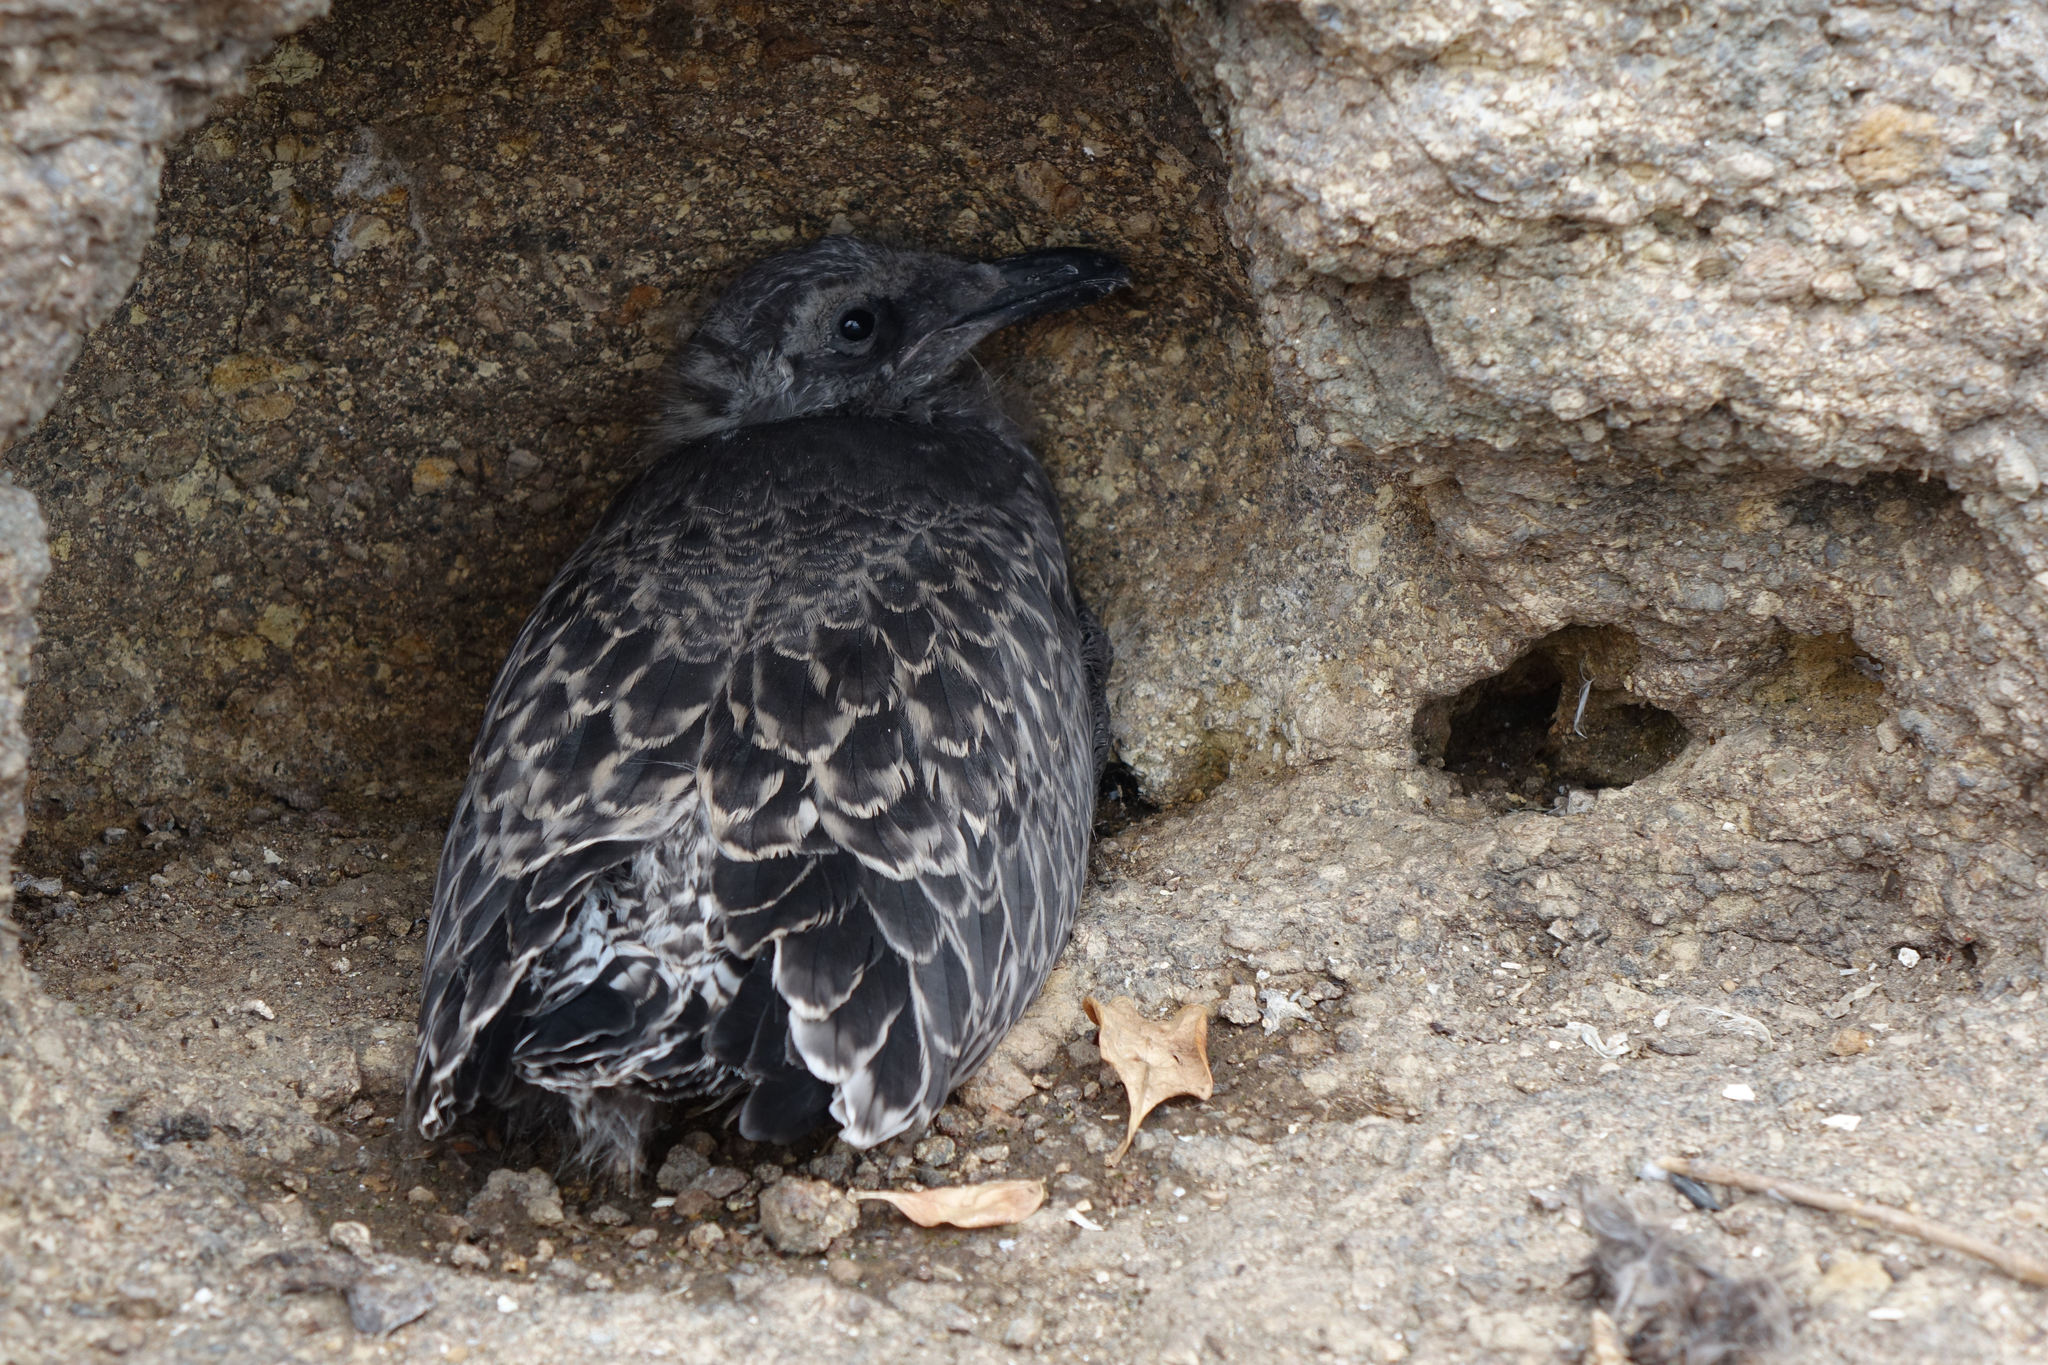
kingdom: Animalia
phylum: Chordata
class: Aves
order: Charadriiformes
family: Laridae
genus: Larus
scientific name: Larus dominicanus
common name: Kelp gull
